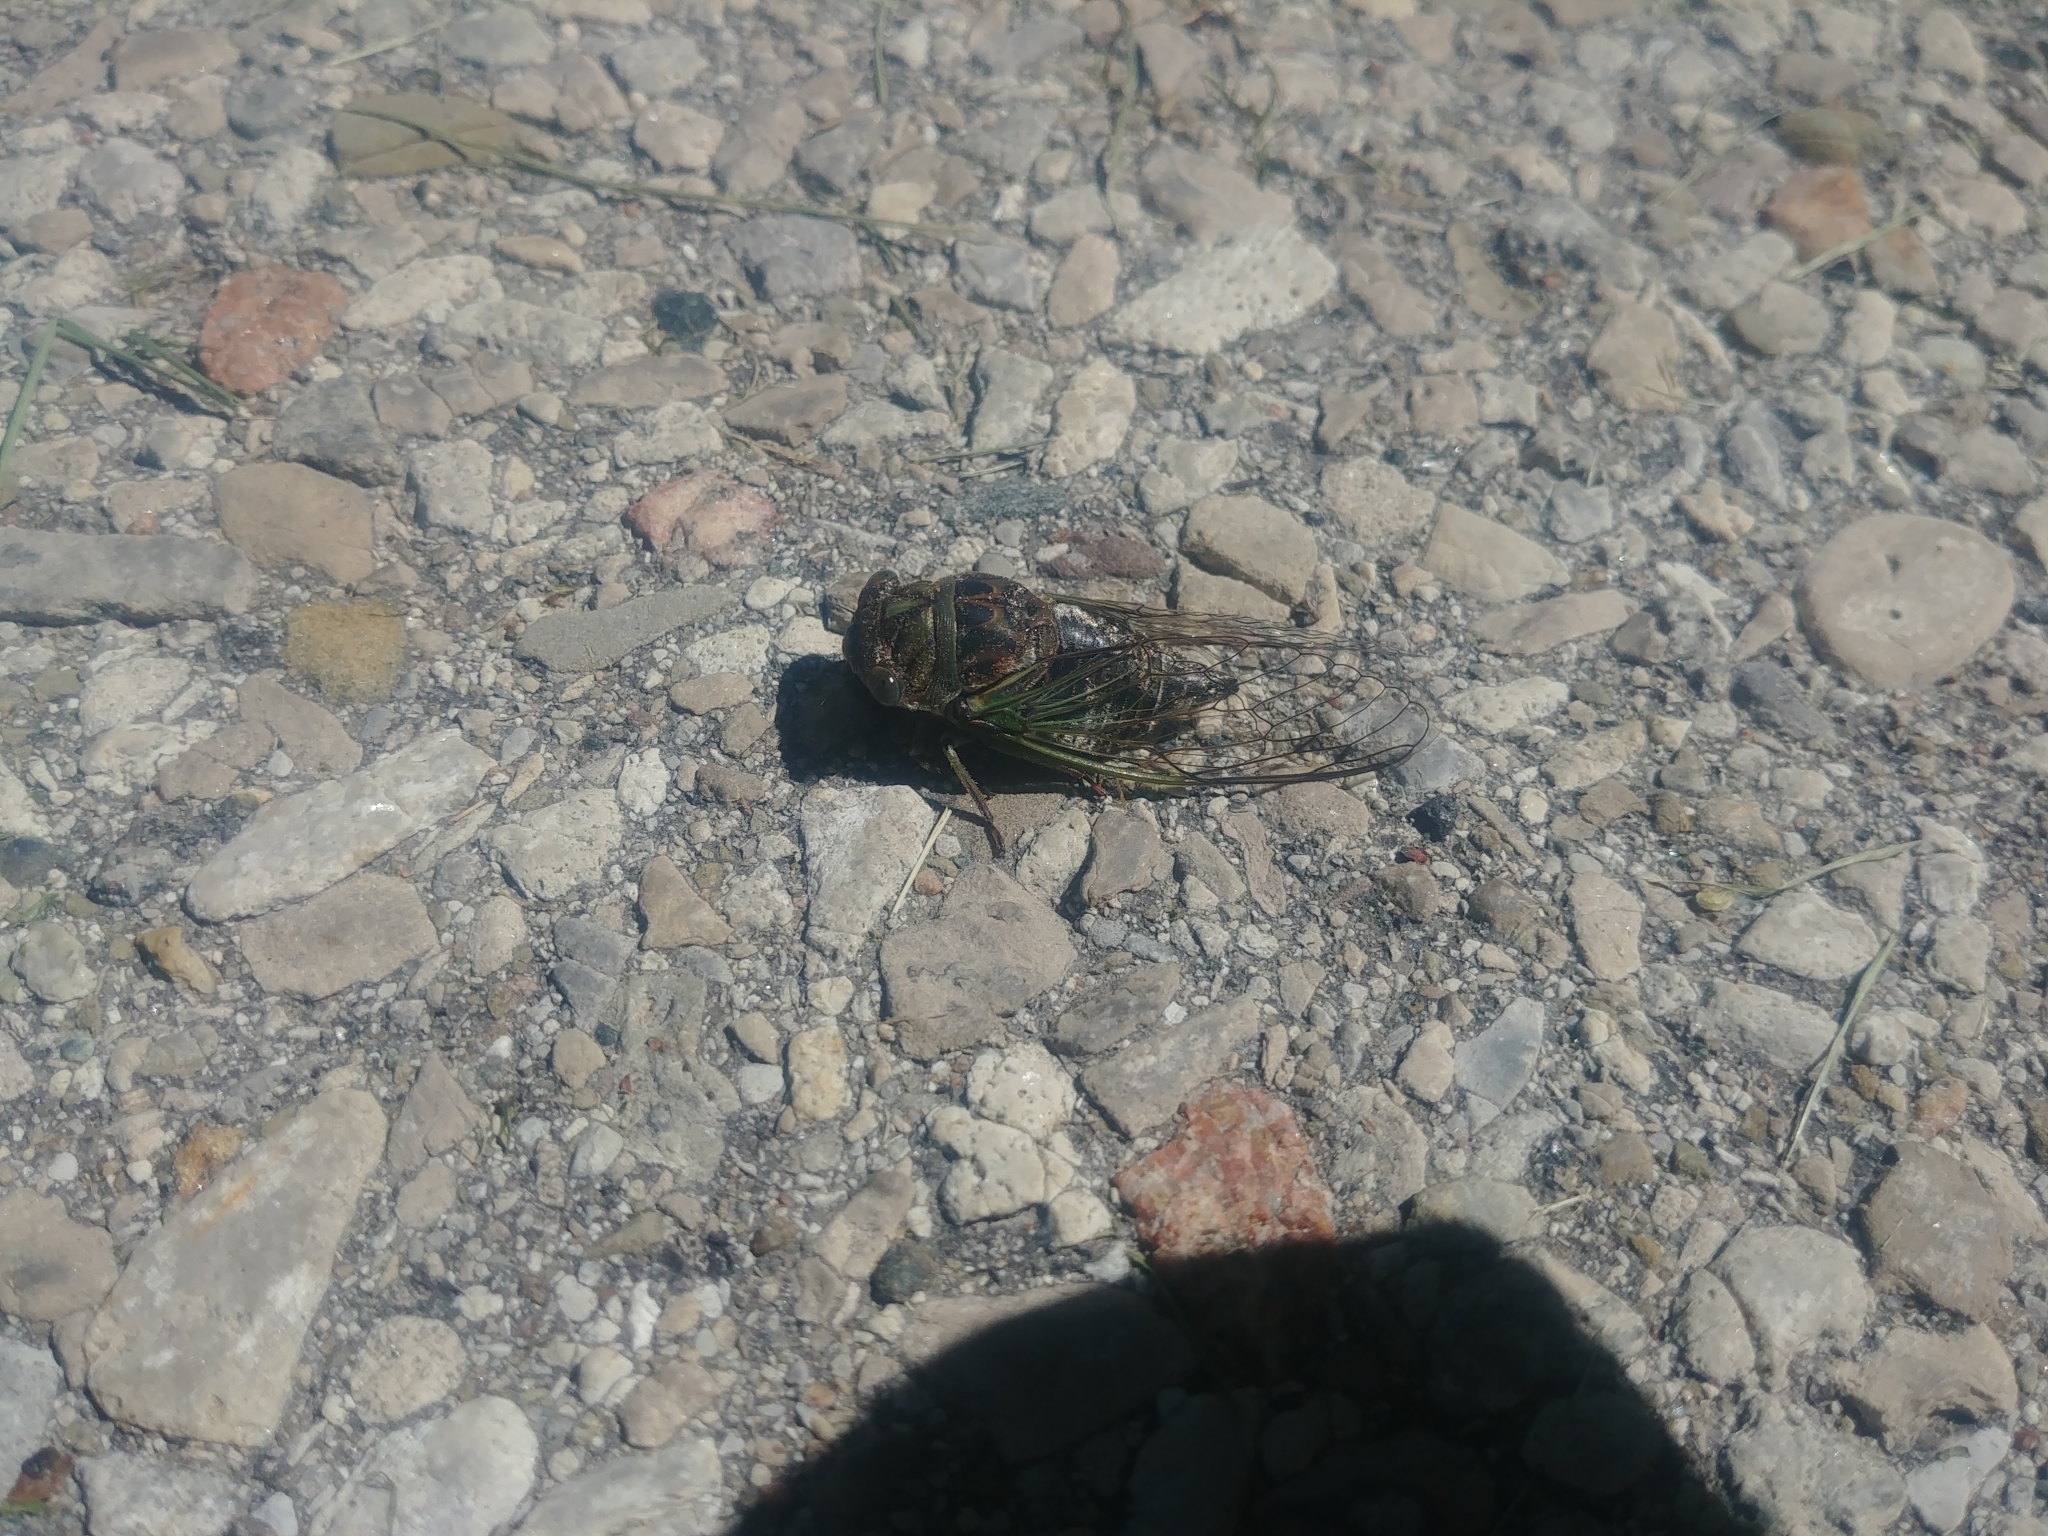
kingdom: Animalia
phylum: Arthropoda
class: Insecta
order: Hemiptera
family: Cicadidae
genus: Neotibicen
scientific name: Neotibicen canicularis
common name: God-day cicada
